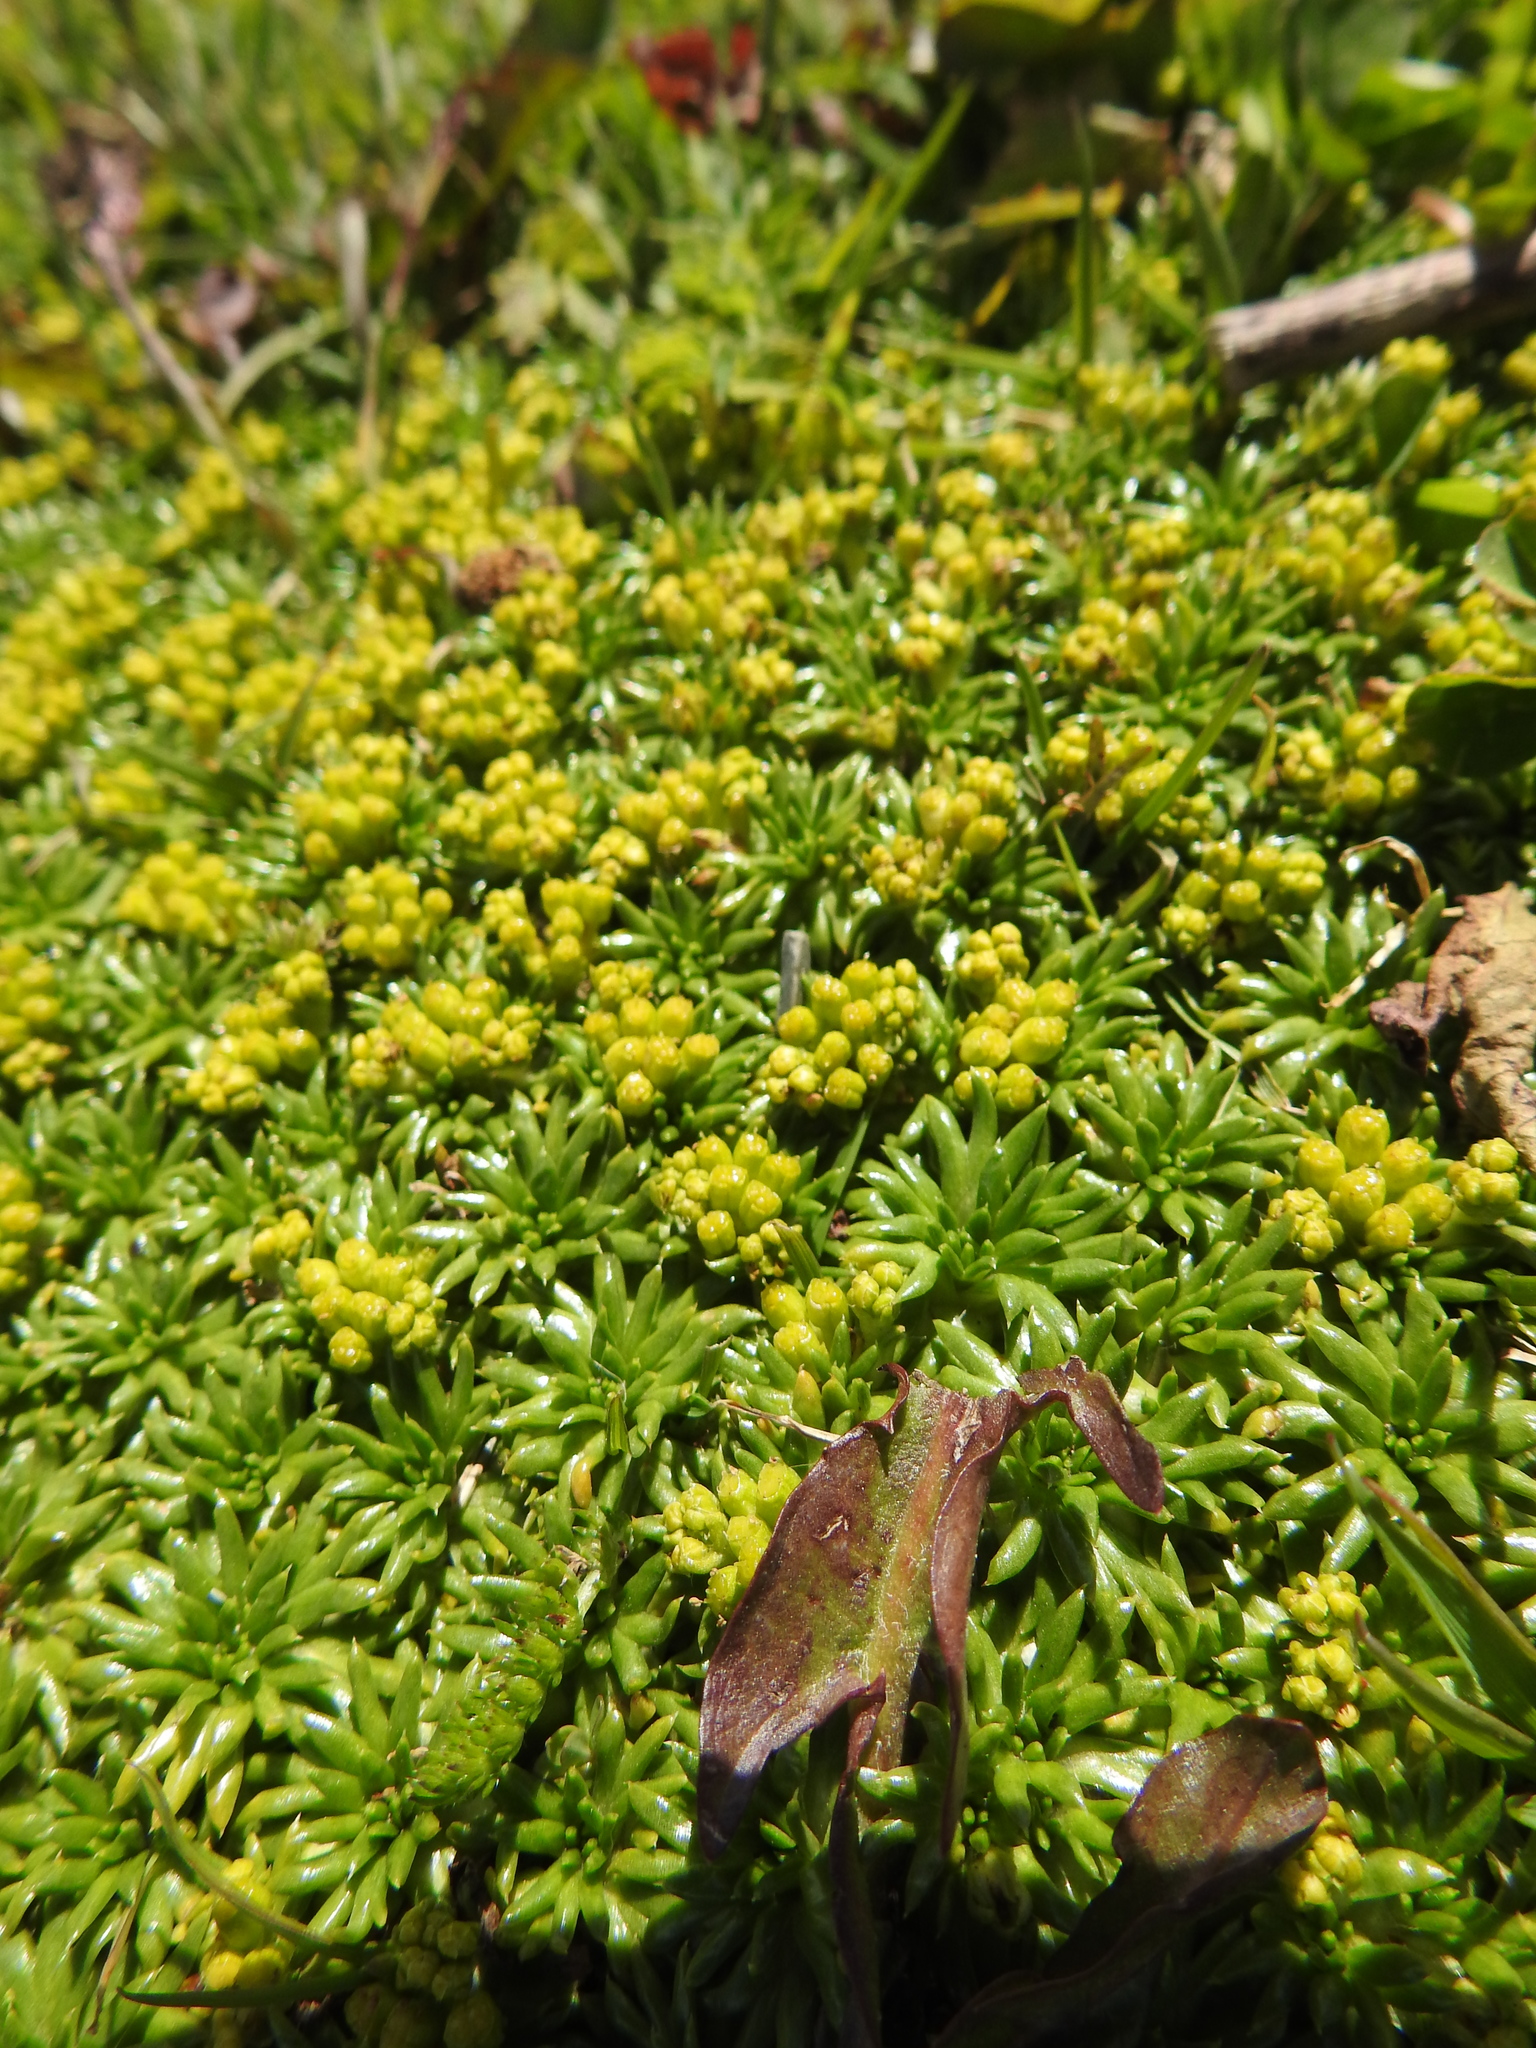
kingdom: Plantae
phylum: Tracheophyta
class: Magnoliopsida
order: Apiales
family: Apiaceae
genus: Azorella
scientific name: Azorella trifurcata
